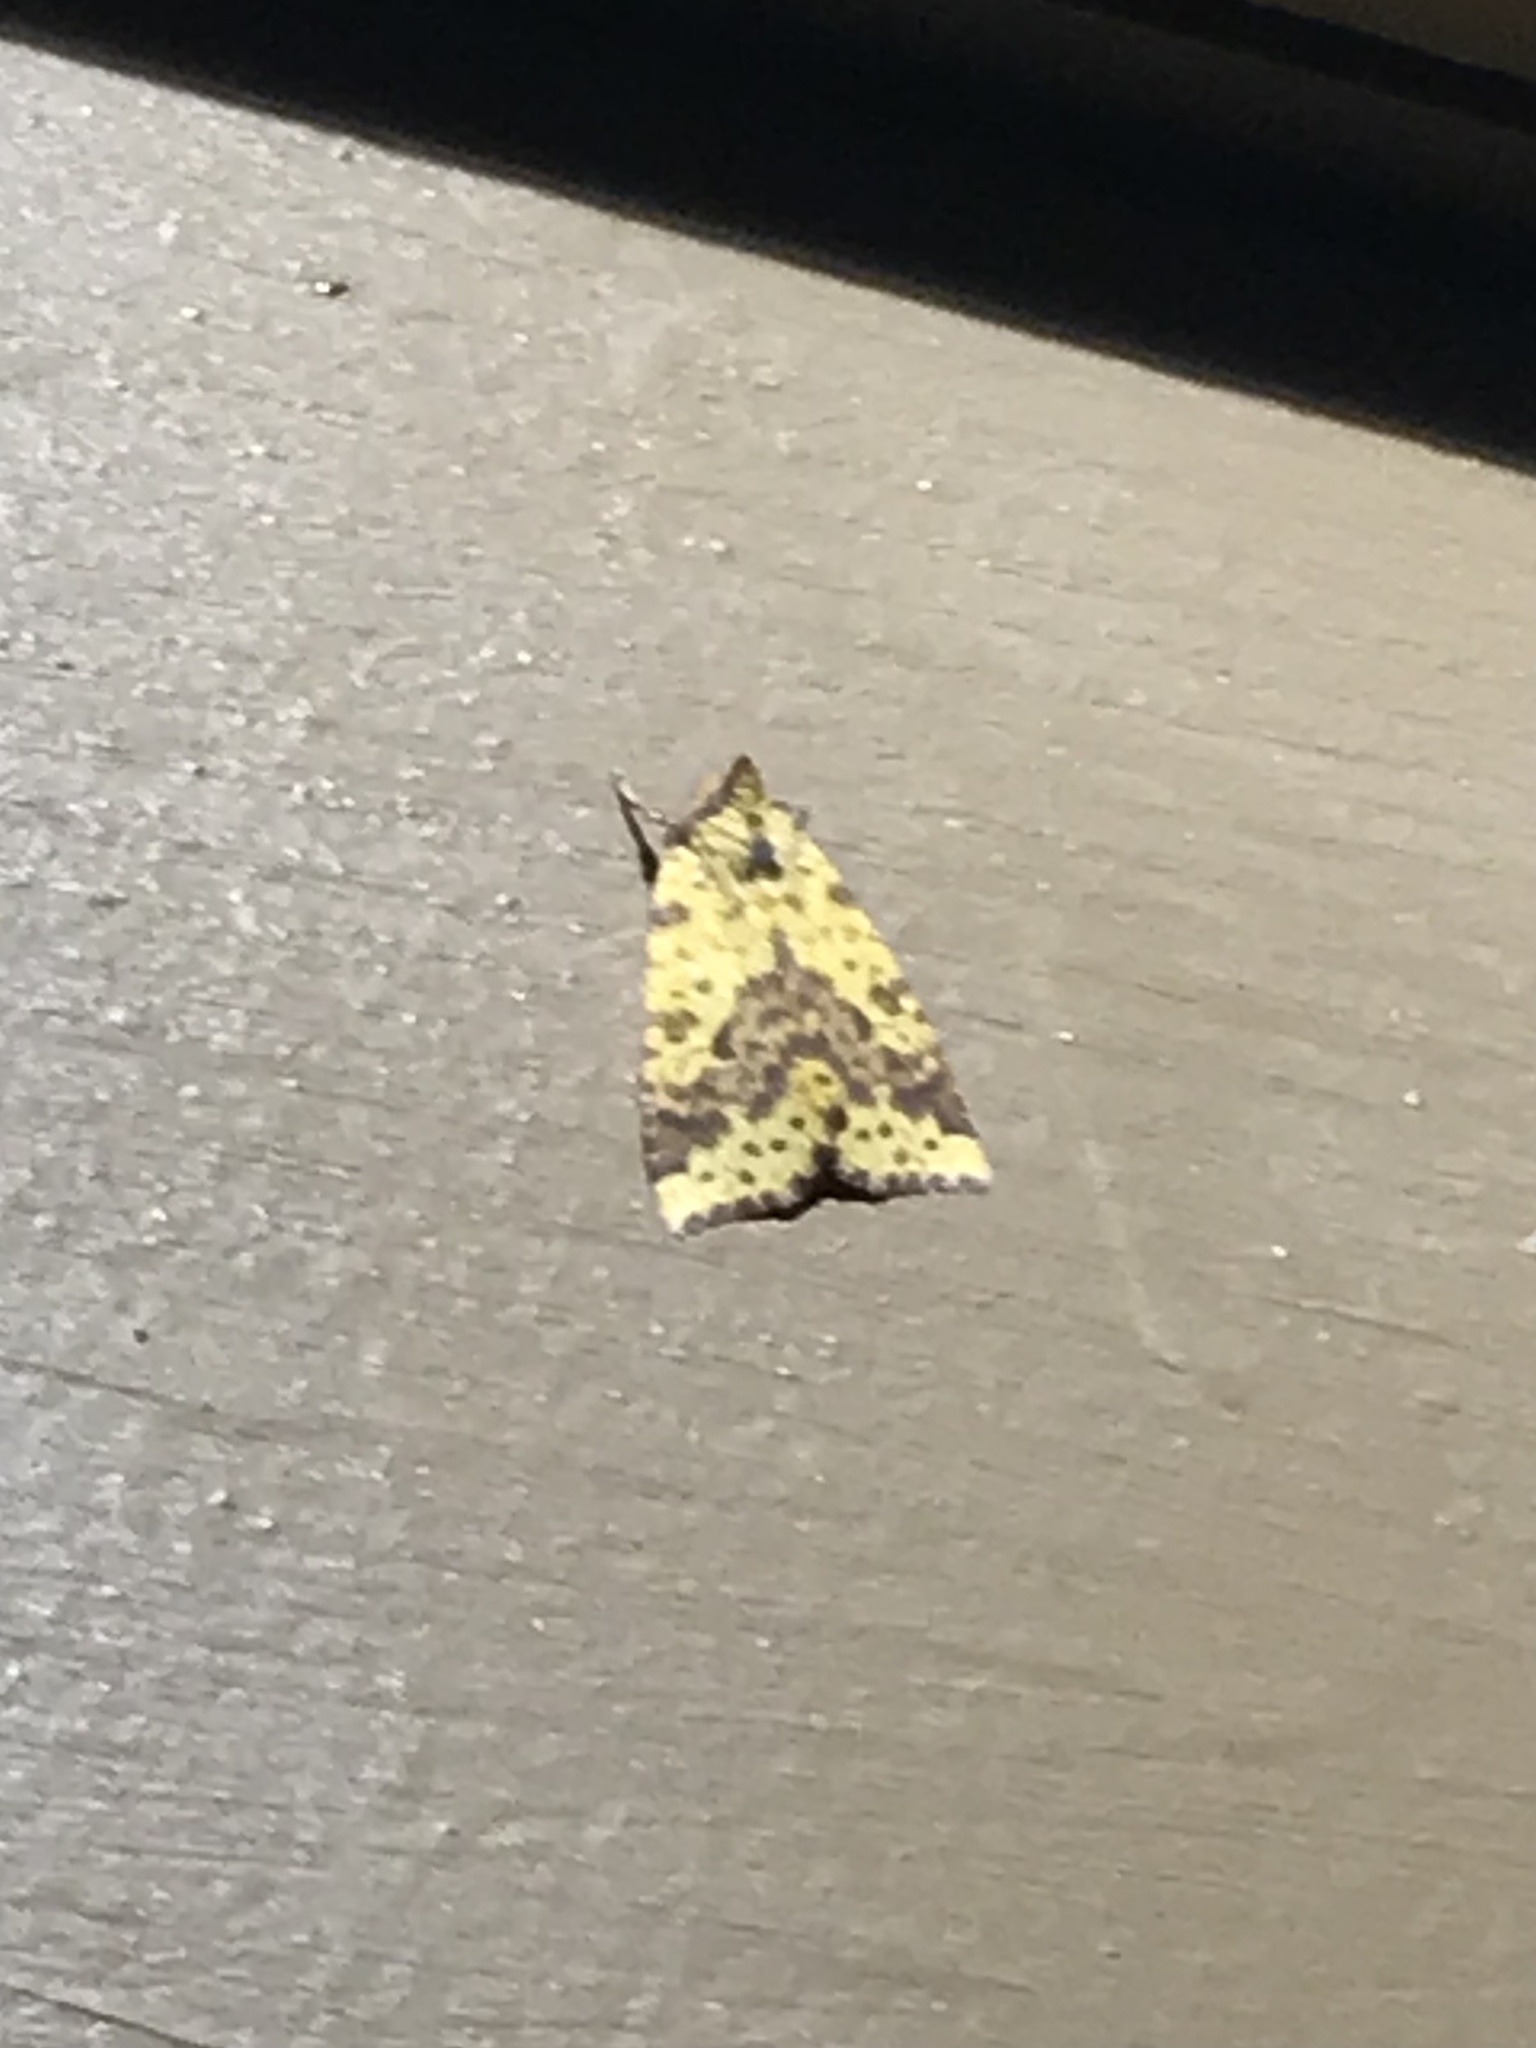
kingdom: Animalia
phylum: Arthropoda
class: Insecta
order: Lepidoptera
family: Noctuidae
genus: Xanthia
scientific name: Xanthia tatago
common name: Pink-banded sallow
